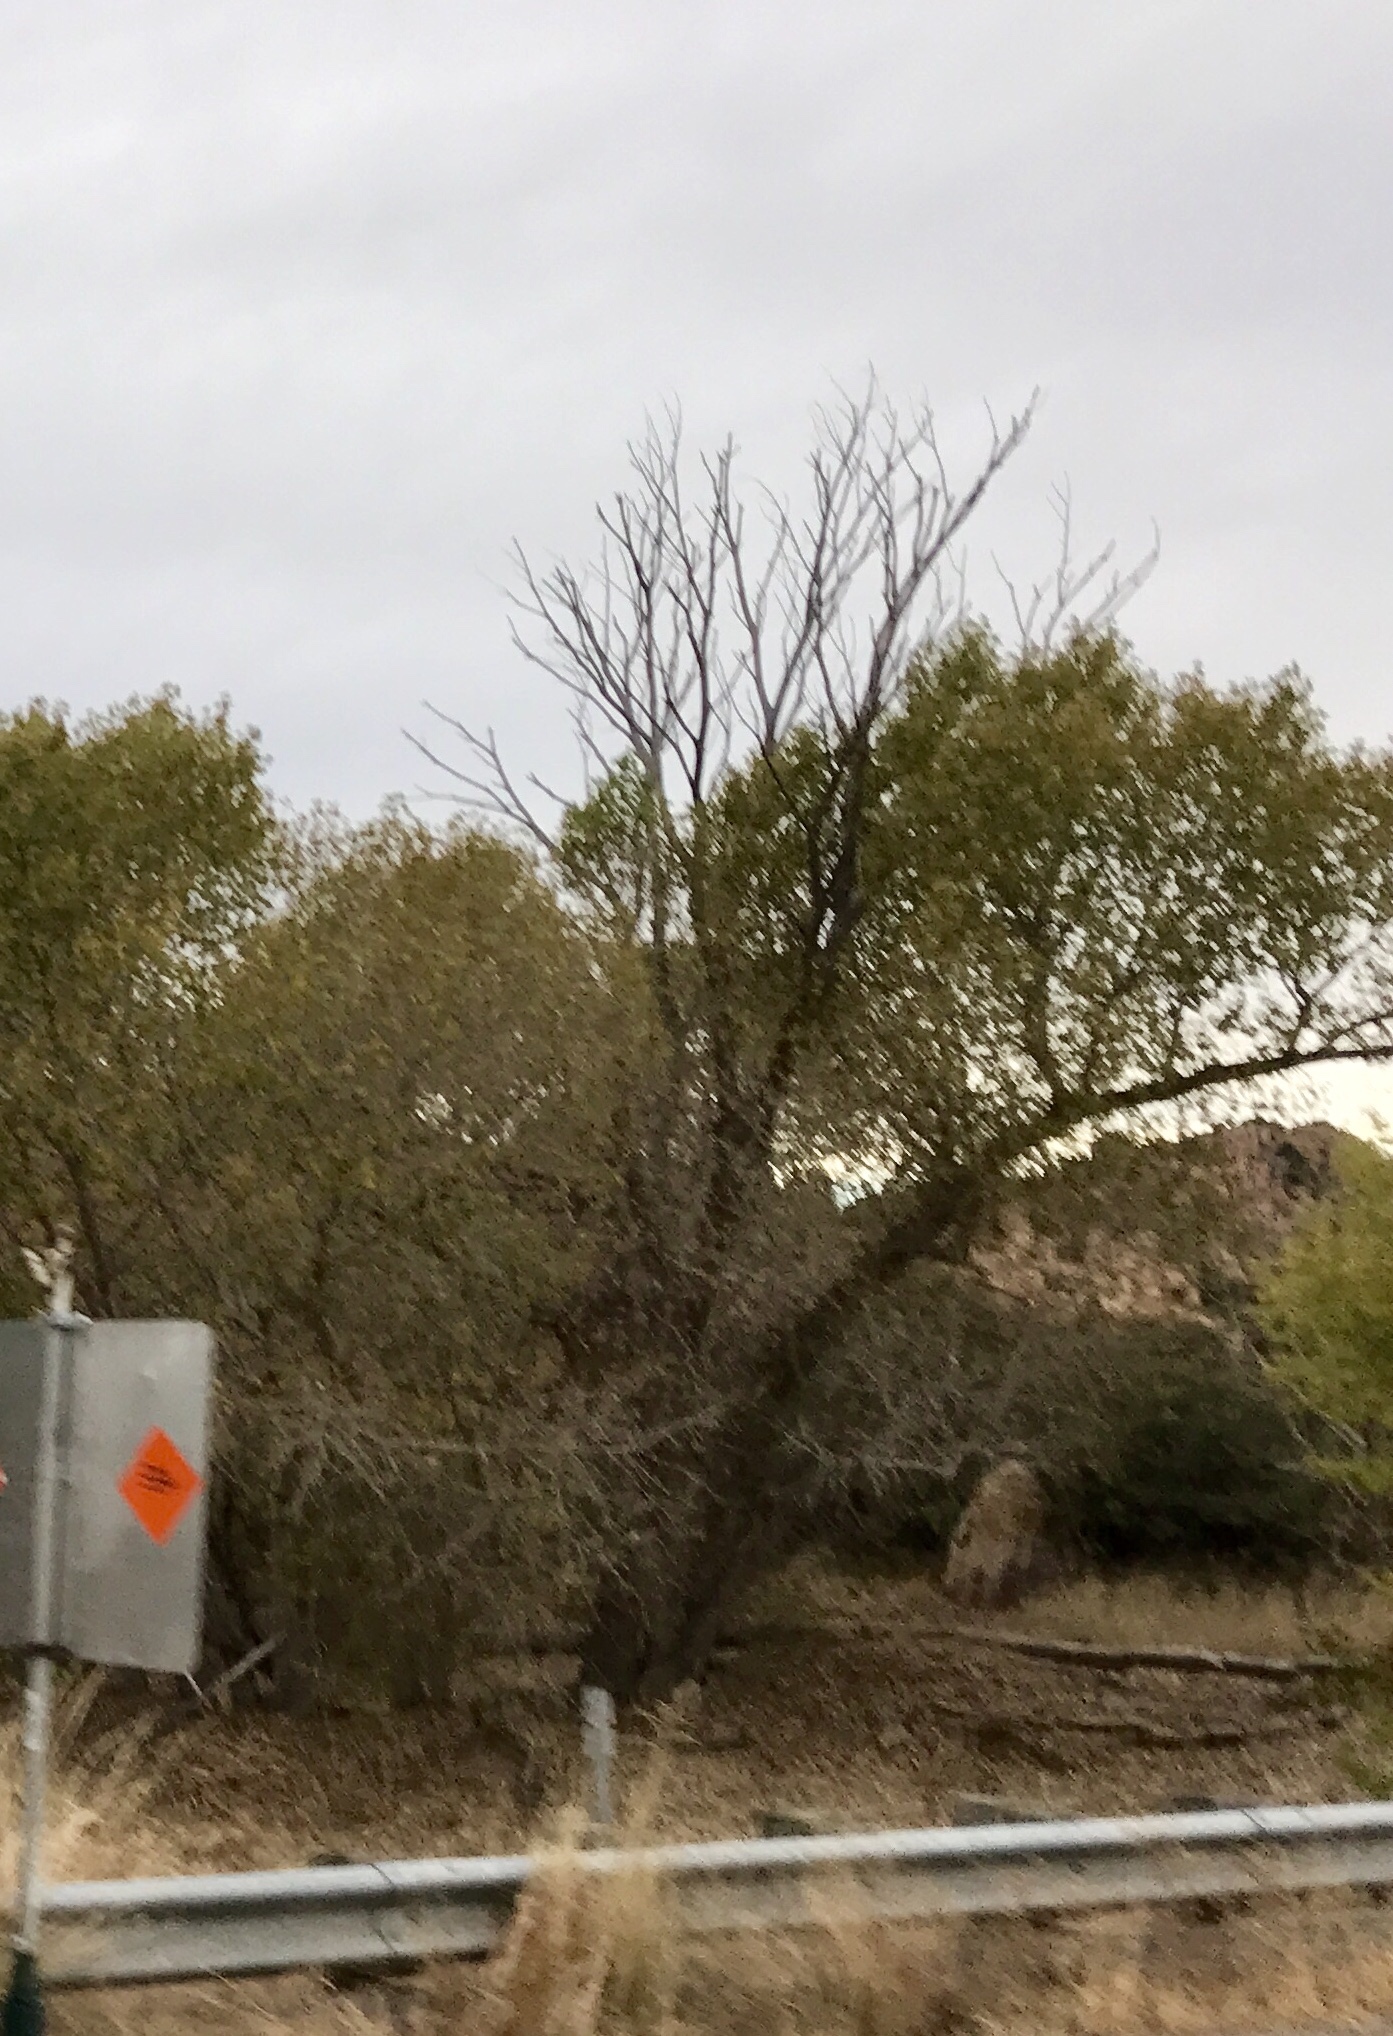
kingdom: Plantae
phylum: Tracheophyta
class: Magnoliopsida
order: Malpighiales
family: Salicaceae
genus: Populus
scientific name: Populus fremontii
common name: Fremont's cottonwood
